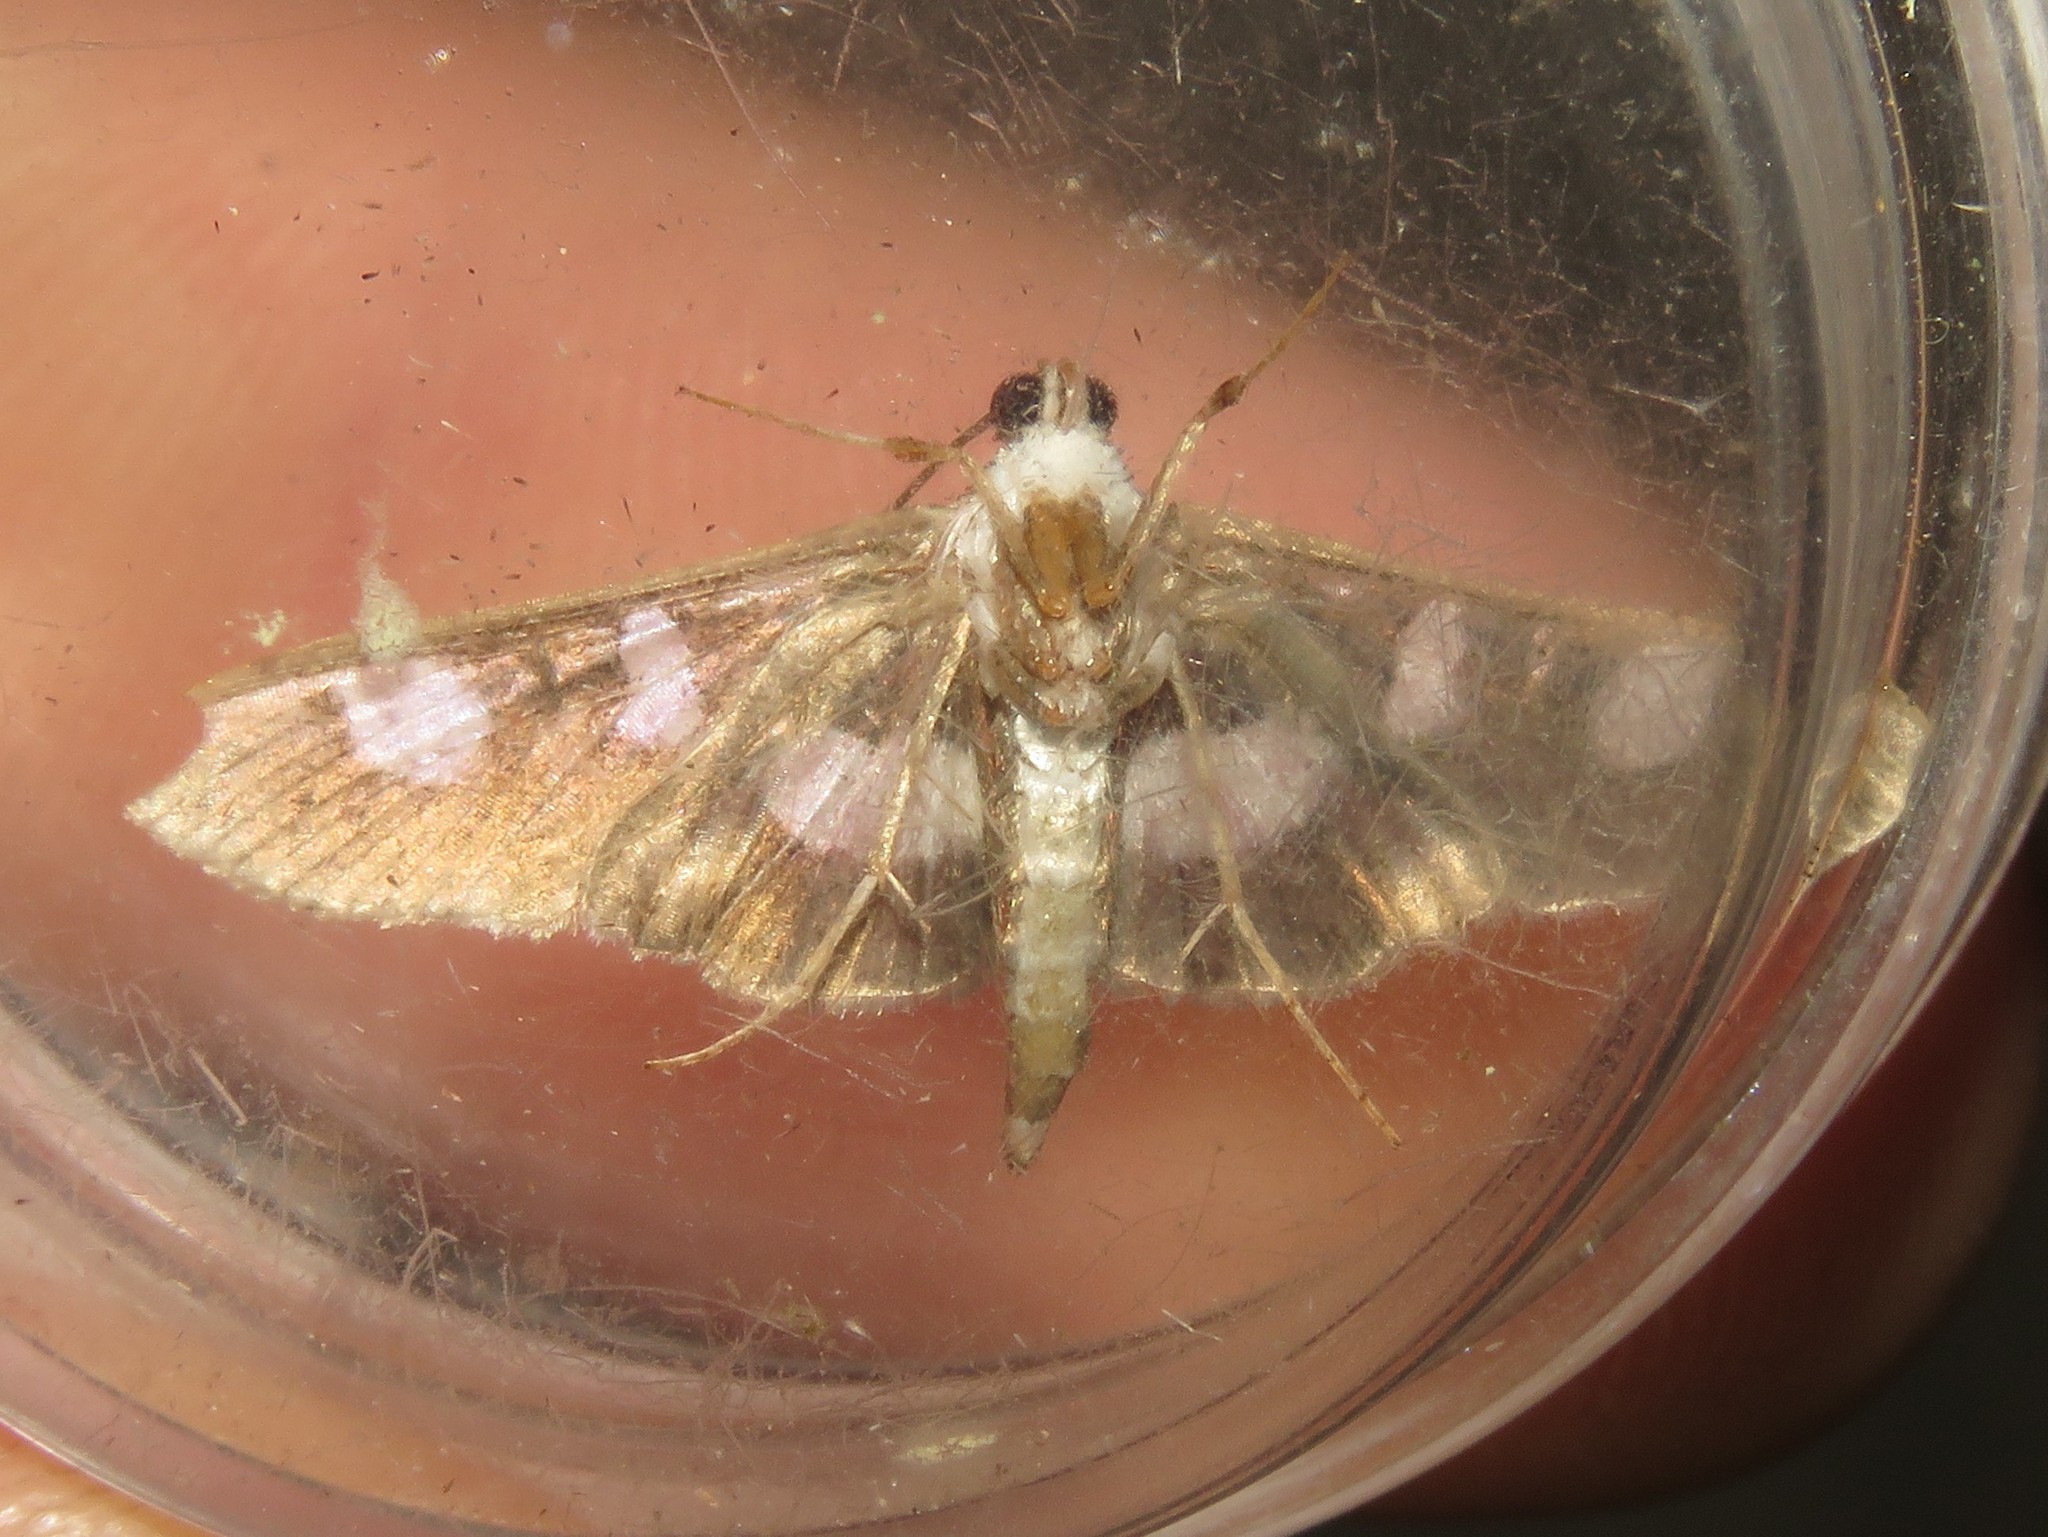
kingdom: Animalia
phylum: Arthropoda
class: Insecta
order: Lepidoptera
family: Crambidae
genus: Desmia
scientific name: Desmia funeralis
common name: Grape leaf folder moth
